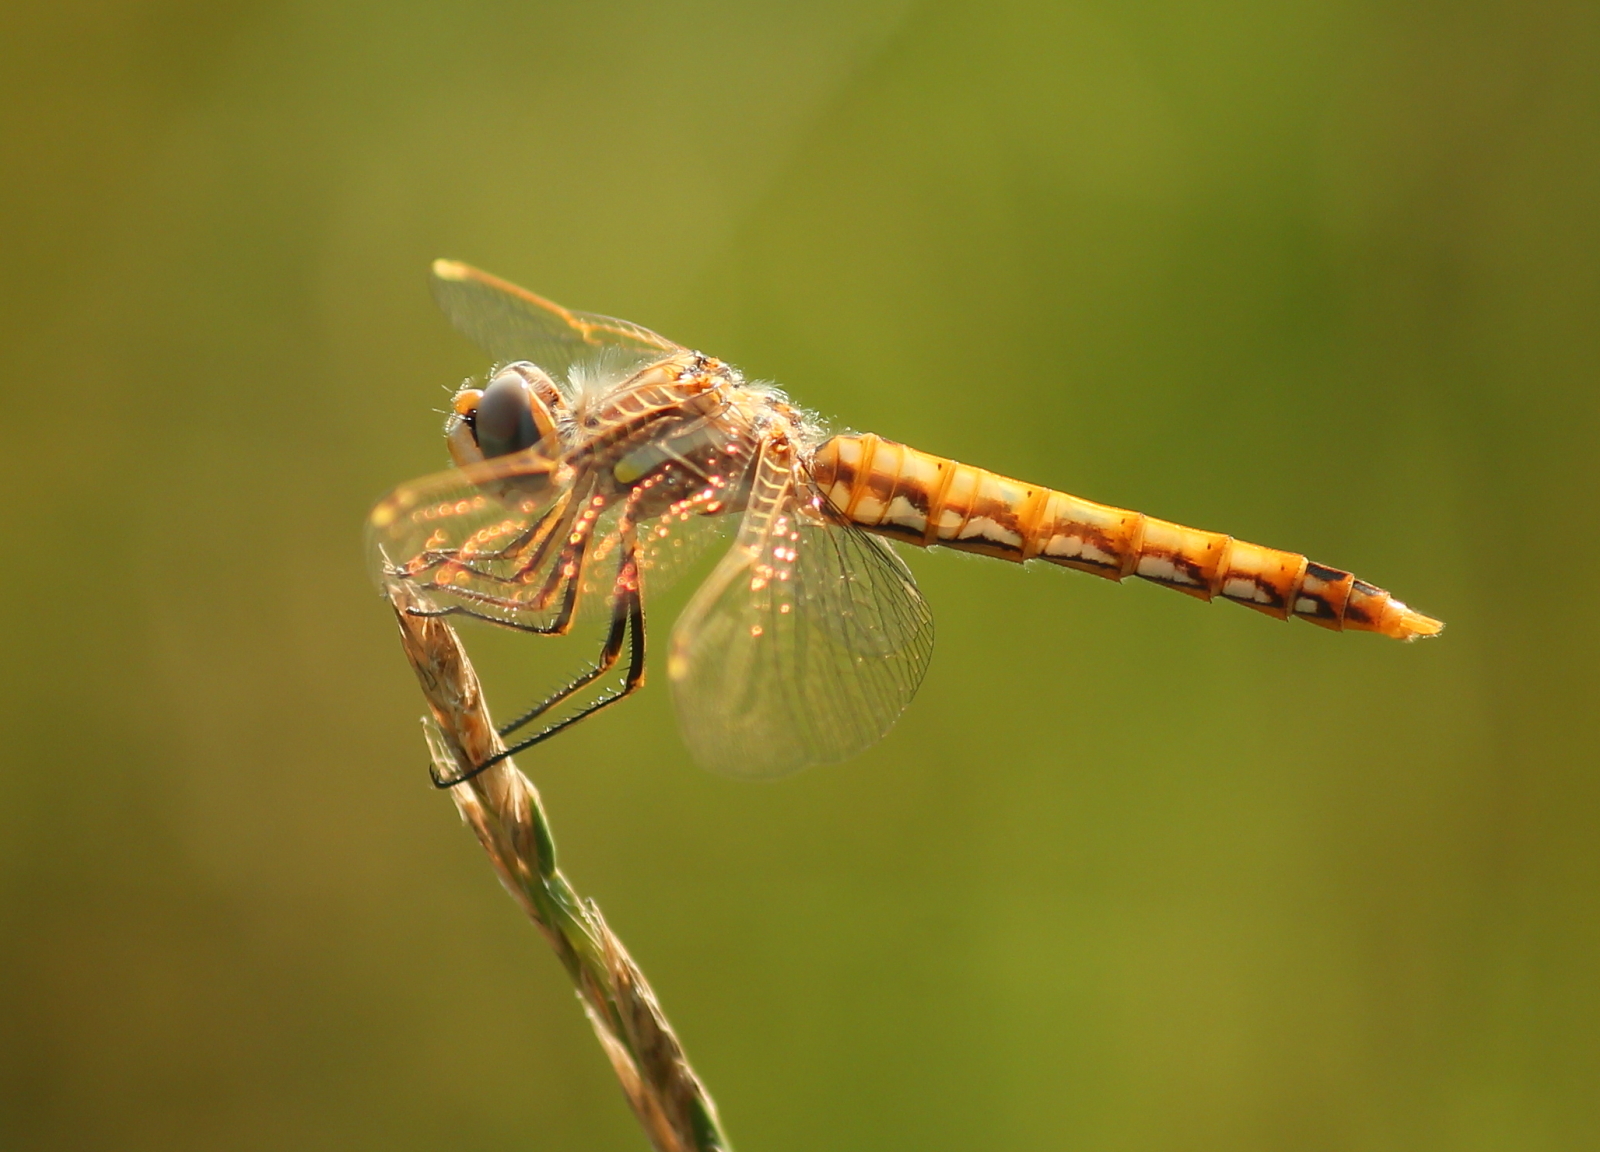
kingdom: Animalia
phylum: Arthropoda
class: Insecta
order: Odonata
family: Libellulidae
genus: Sympetrum
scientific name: Sympetrum corruptum
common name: Variegated meadowhawk
